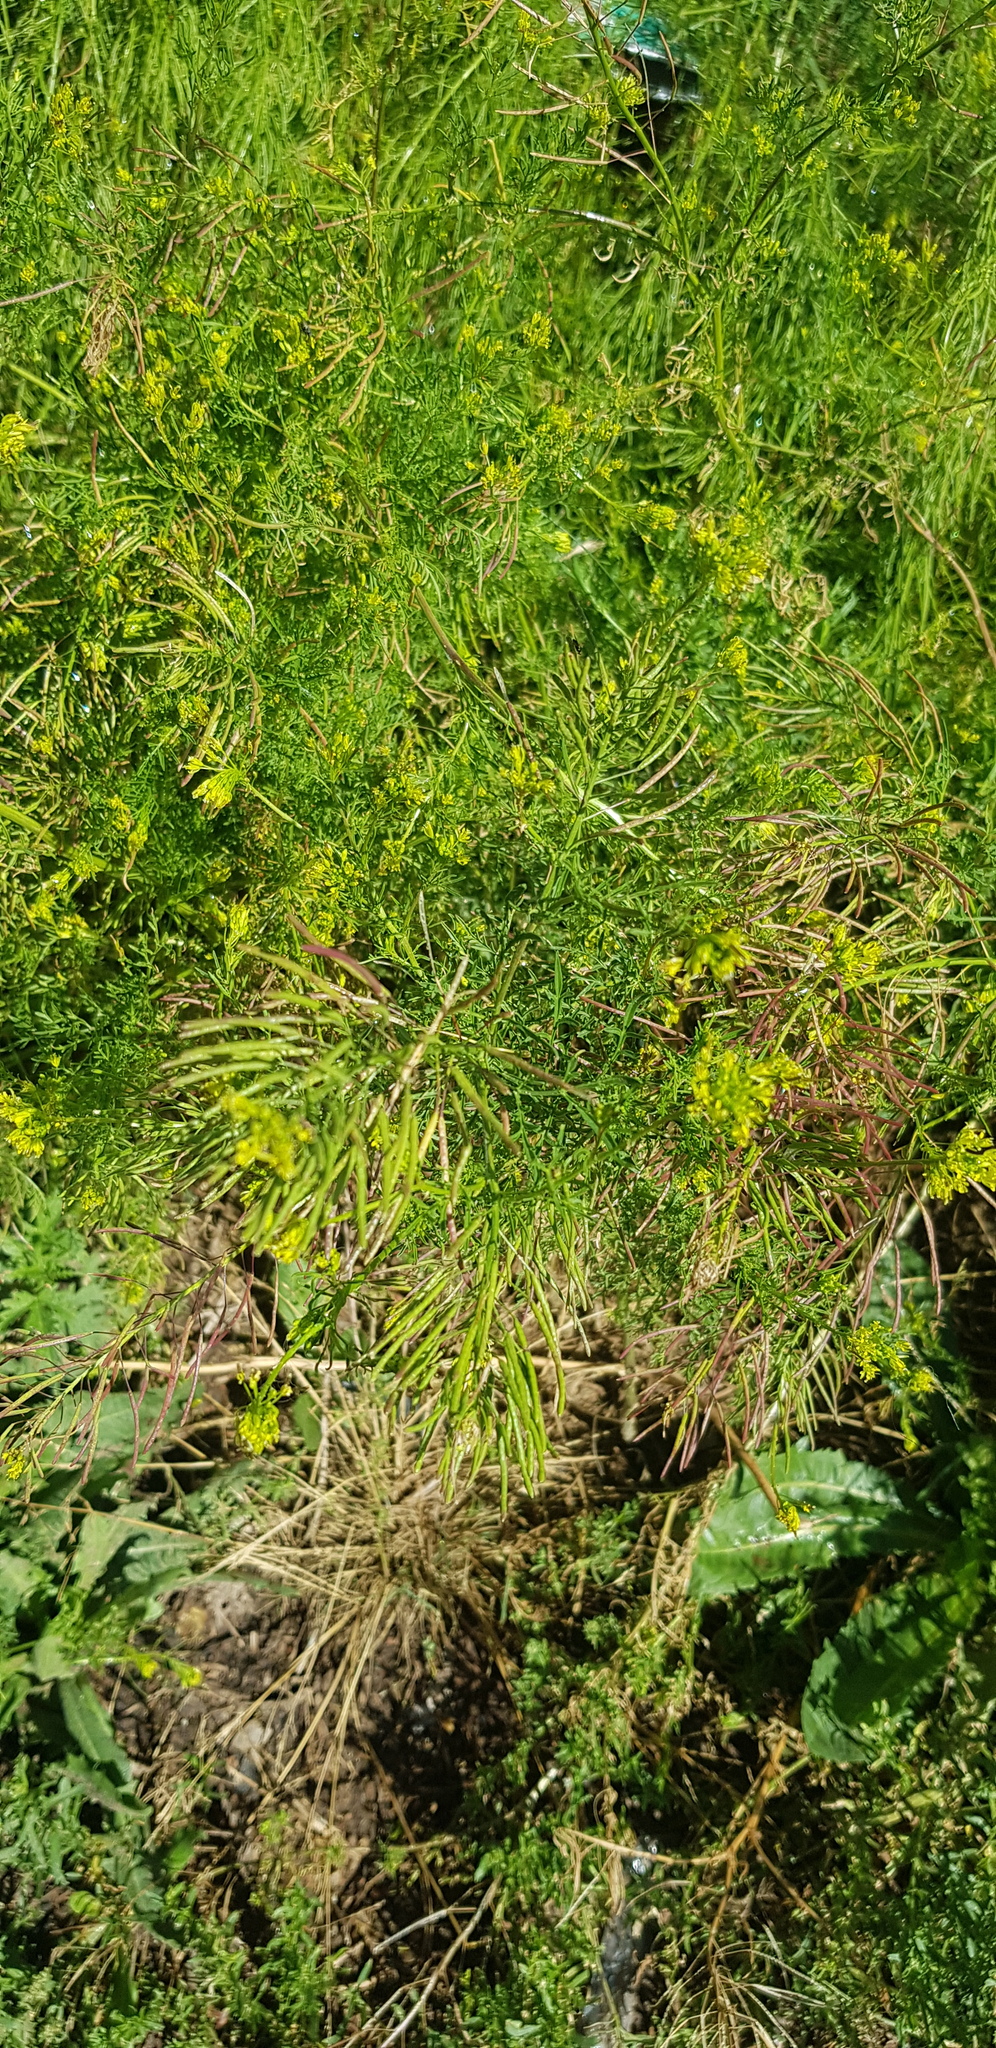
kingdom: Plantae
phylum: Tracheophyta
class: Magnoliopsida
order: Brassicales
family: Brassicaceae
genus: Descurainia
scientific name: Descurainia sophia
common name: Flixweed
